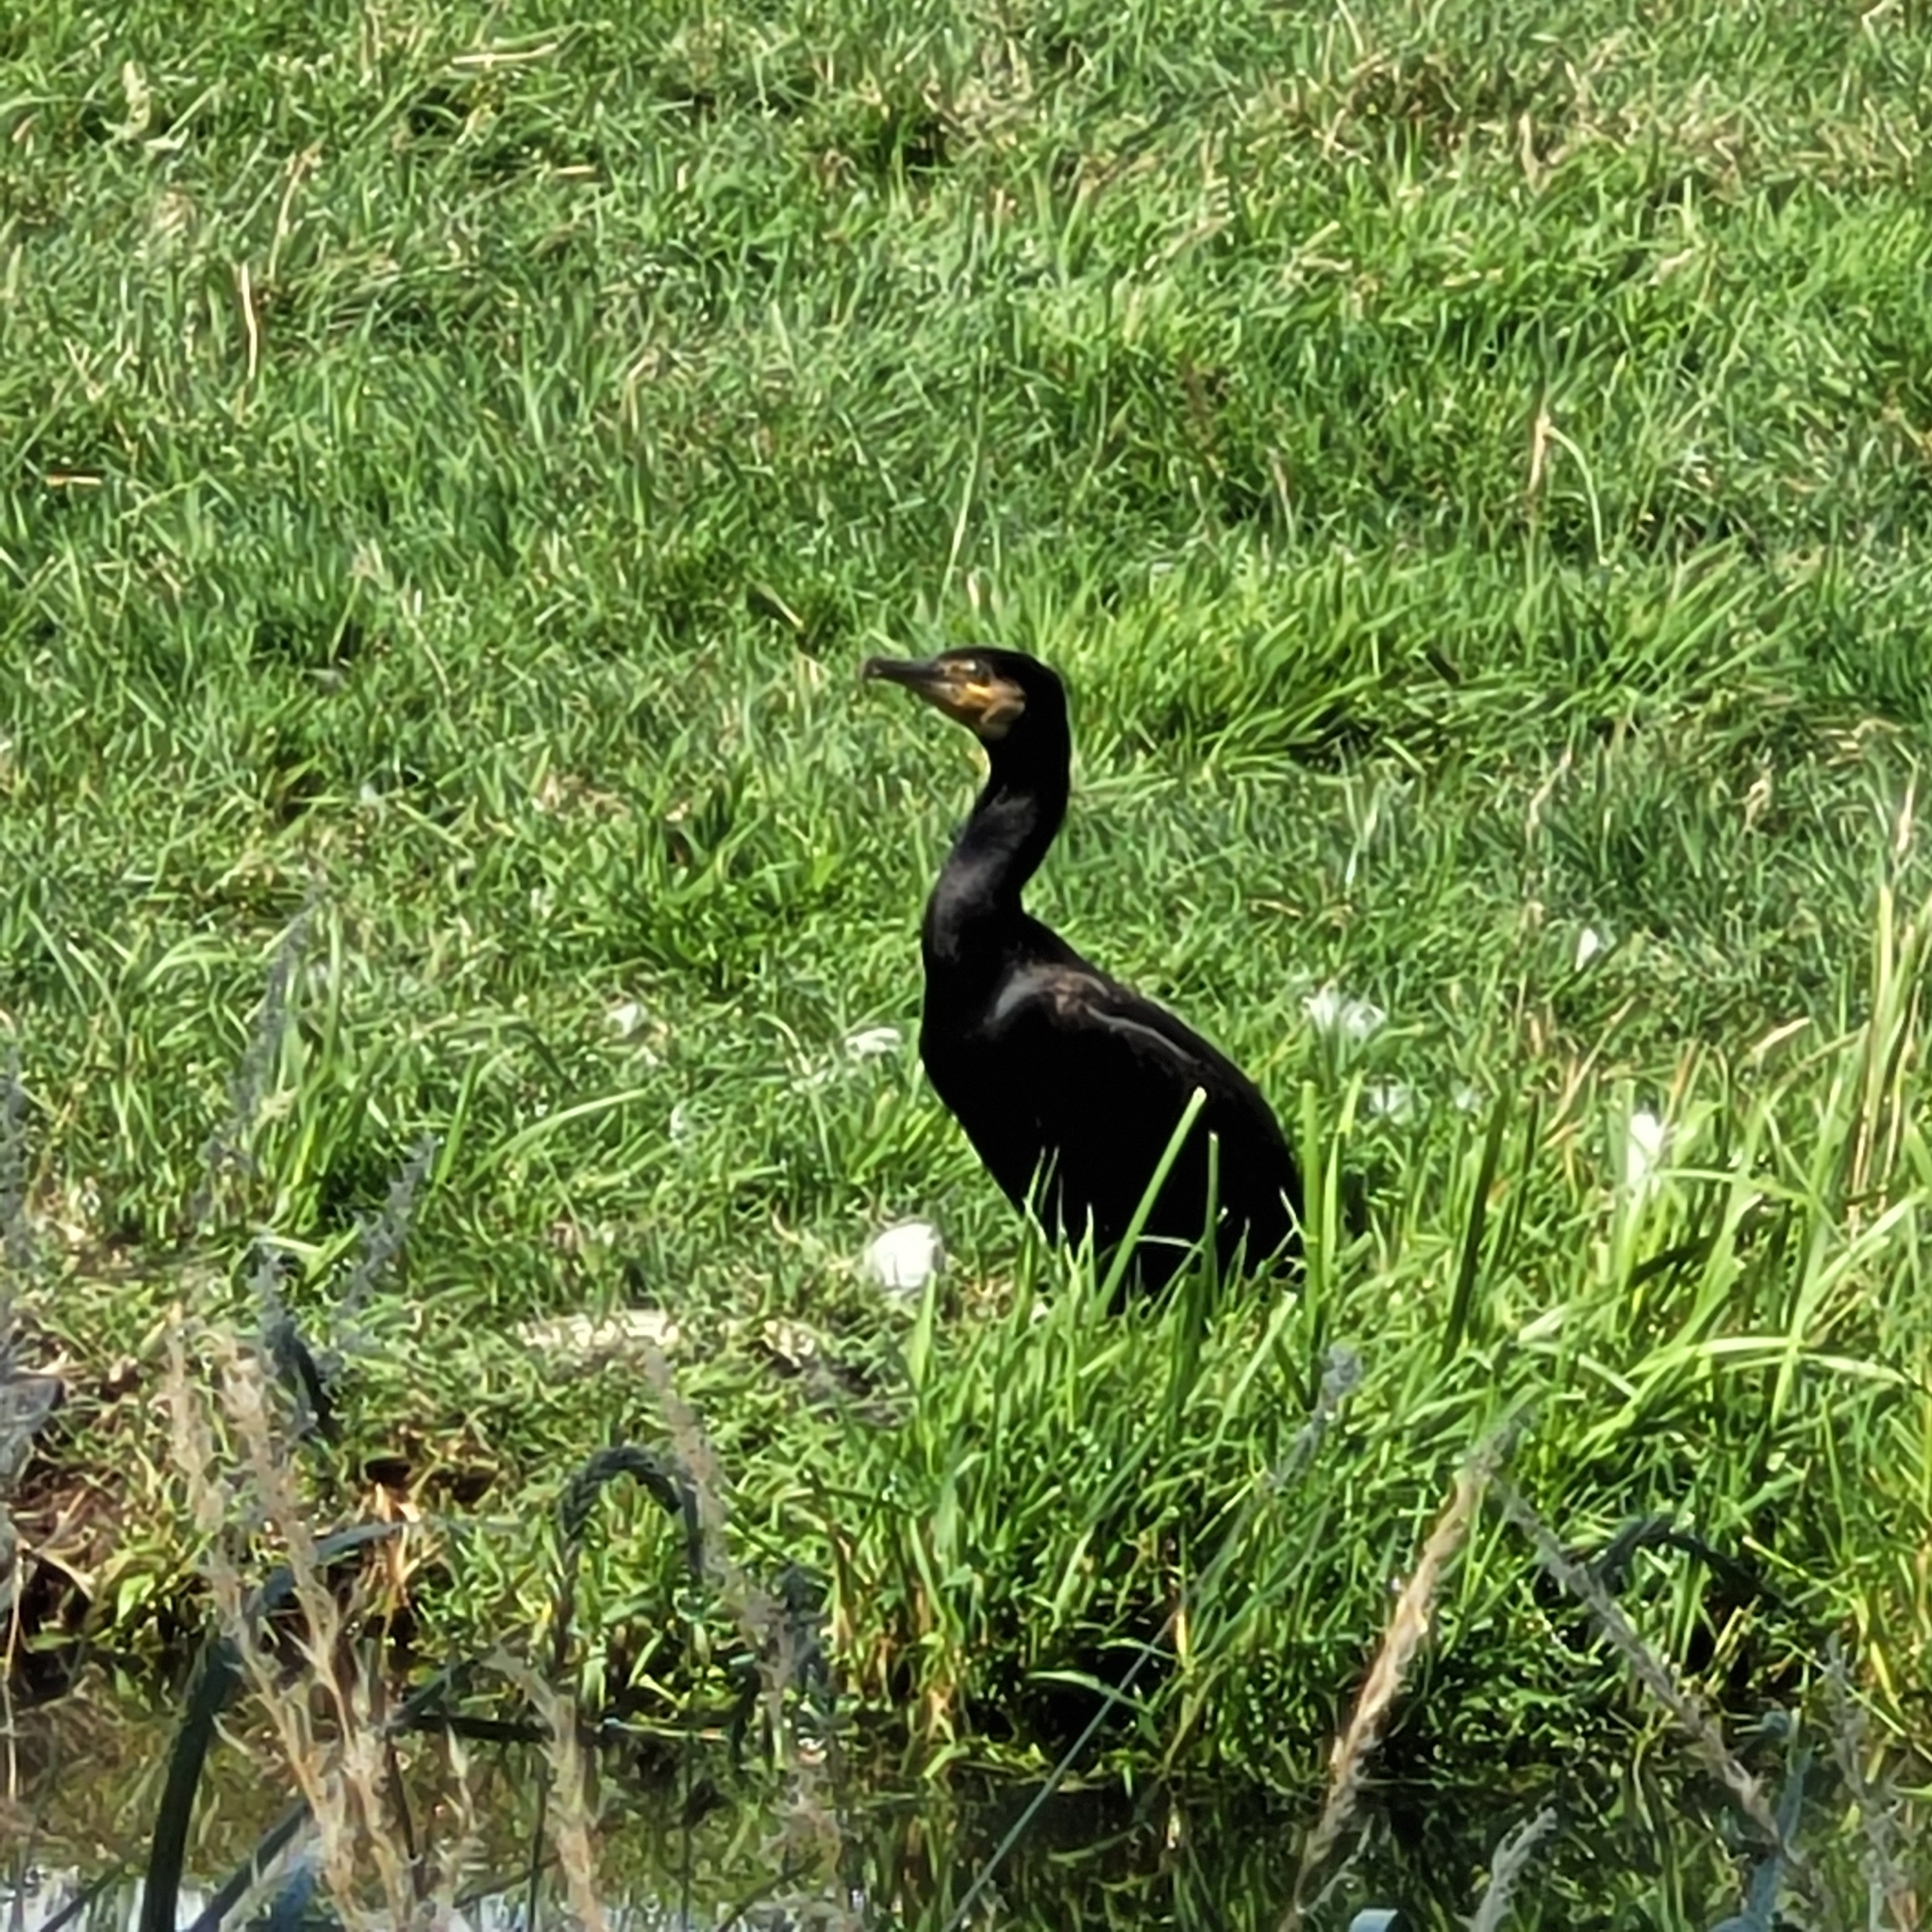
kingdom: Animalia
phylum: Chordata
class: Aves
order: Suliformes
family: Phalacrocoracidae
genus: Phalacrocorax
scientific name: Phalacrocorax carbo
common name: Great cormorant
